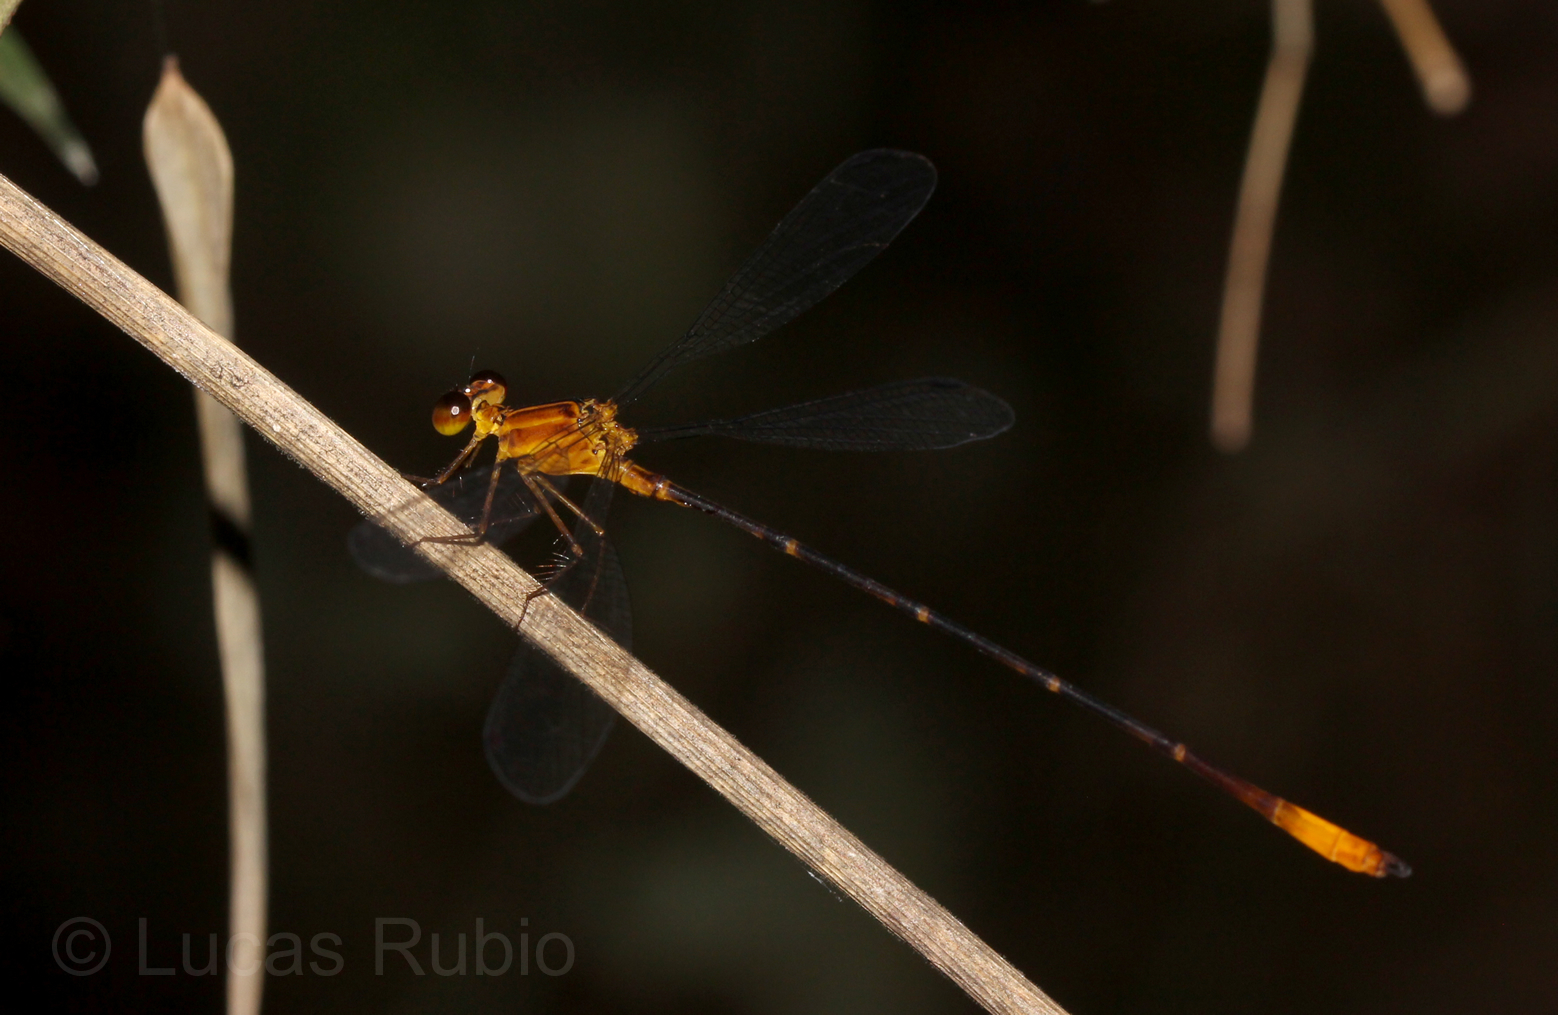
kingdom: Animalia
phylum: Arthropoda
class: Insecta
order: Odonata
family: Heteragrionidae
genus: Heteragrion
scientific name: Heteragrion aurantiacum
